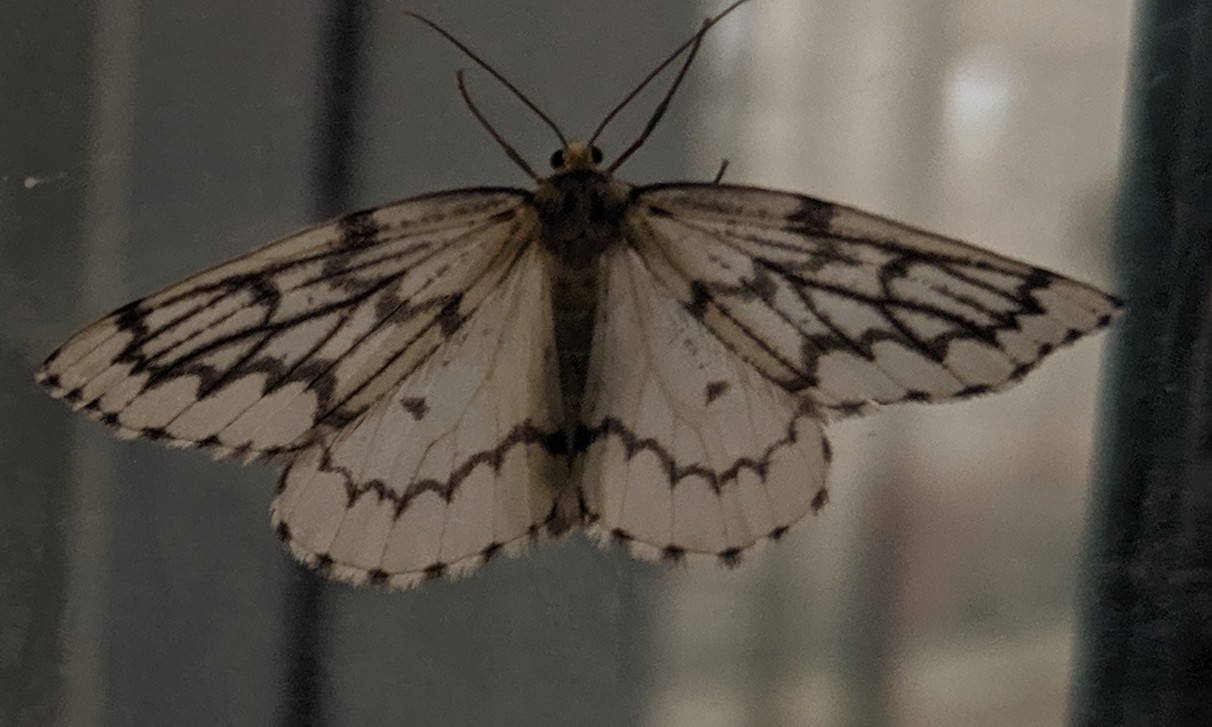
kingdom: Animalia
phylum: Arthropoda
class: Insecta
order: Lepidoptera
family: Geometridae
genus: Nepytia
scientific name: Nepytia phantasmaria
